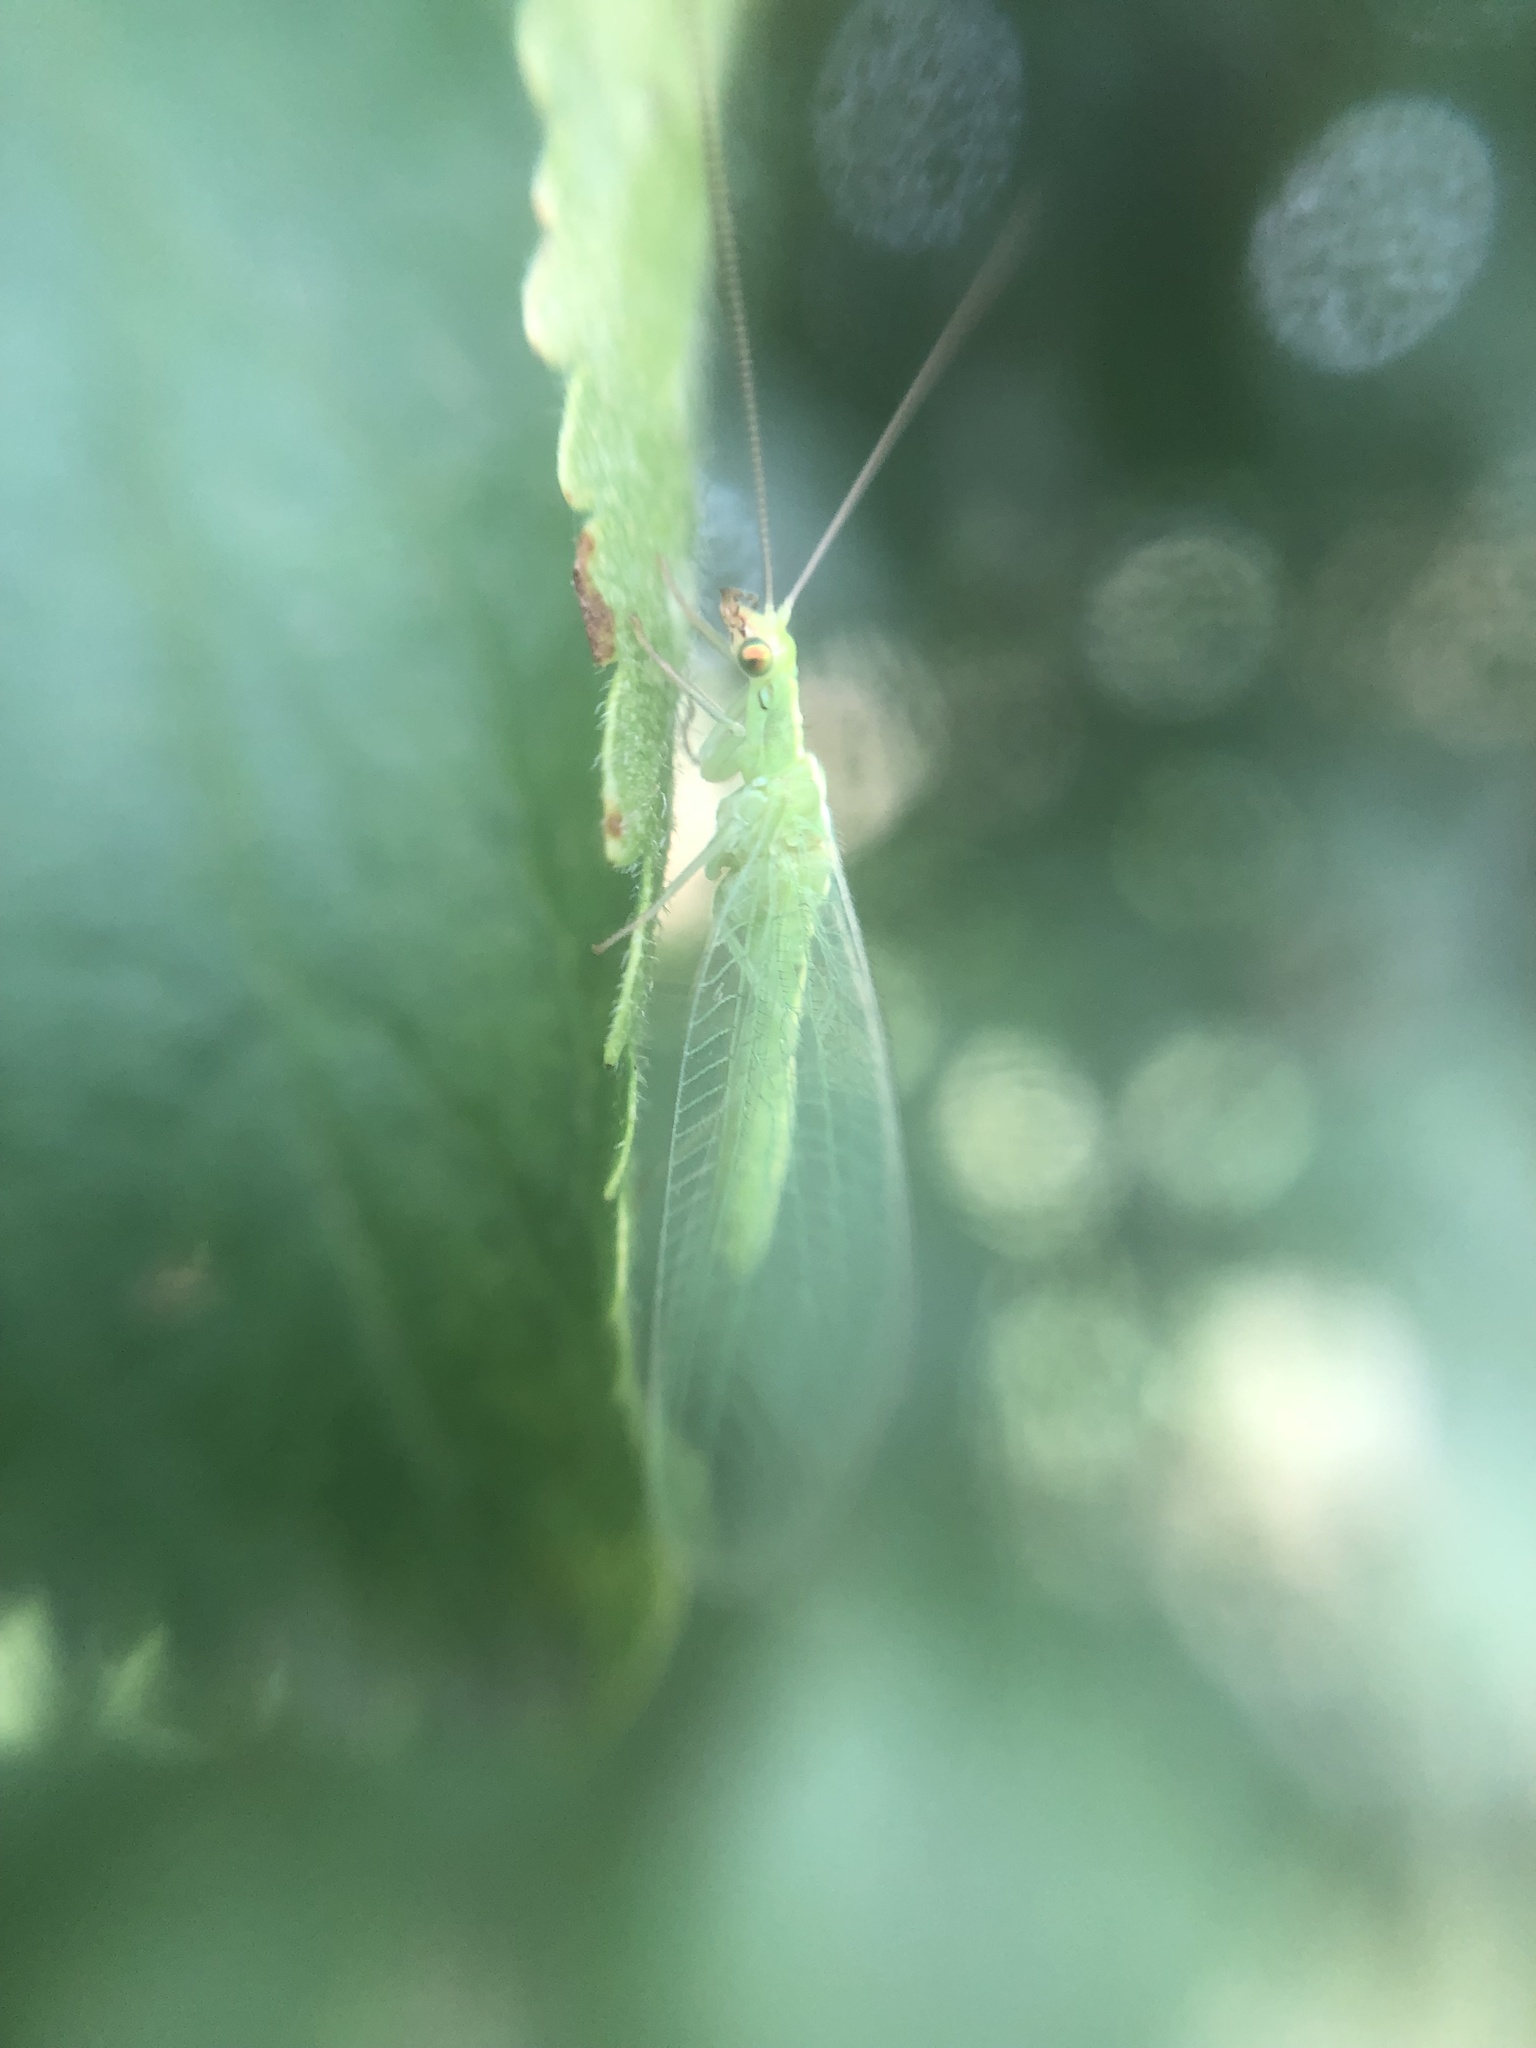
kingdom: Animalia
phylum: Arthropoda
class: Insecta
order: Neuroptera
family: Chrysopidae
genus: Chrysoperla
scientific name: Chrysoperla
